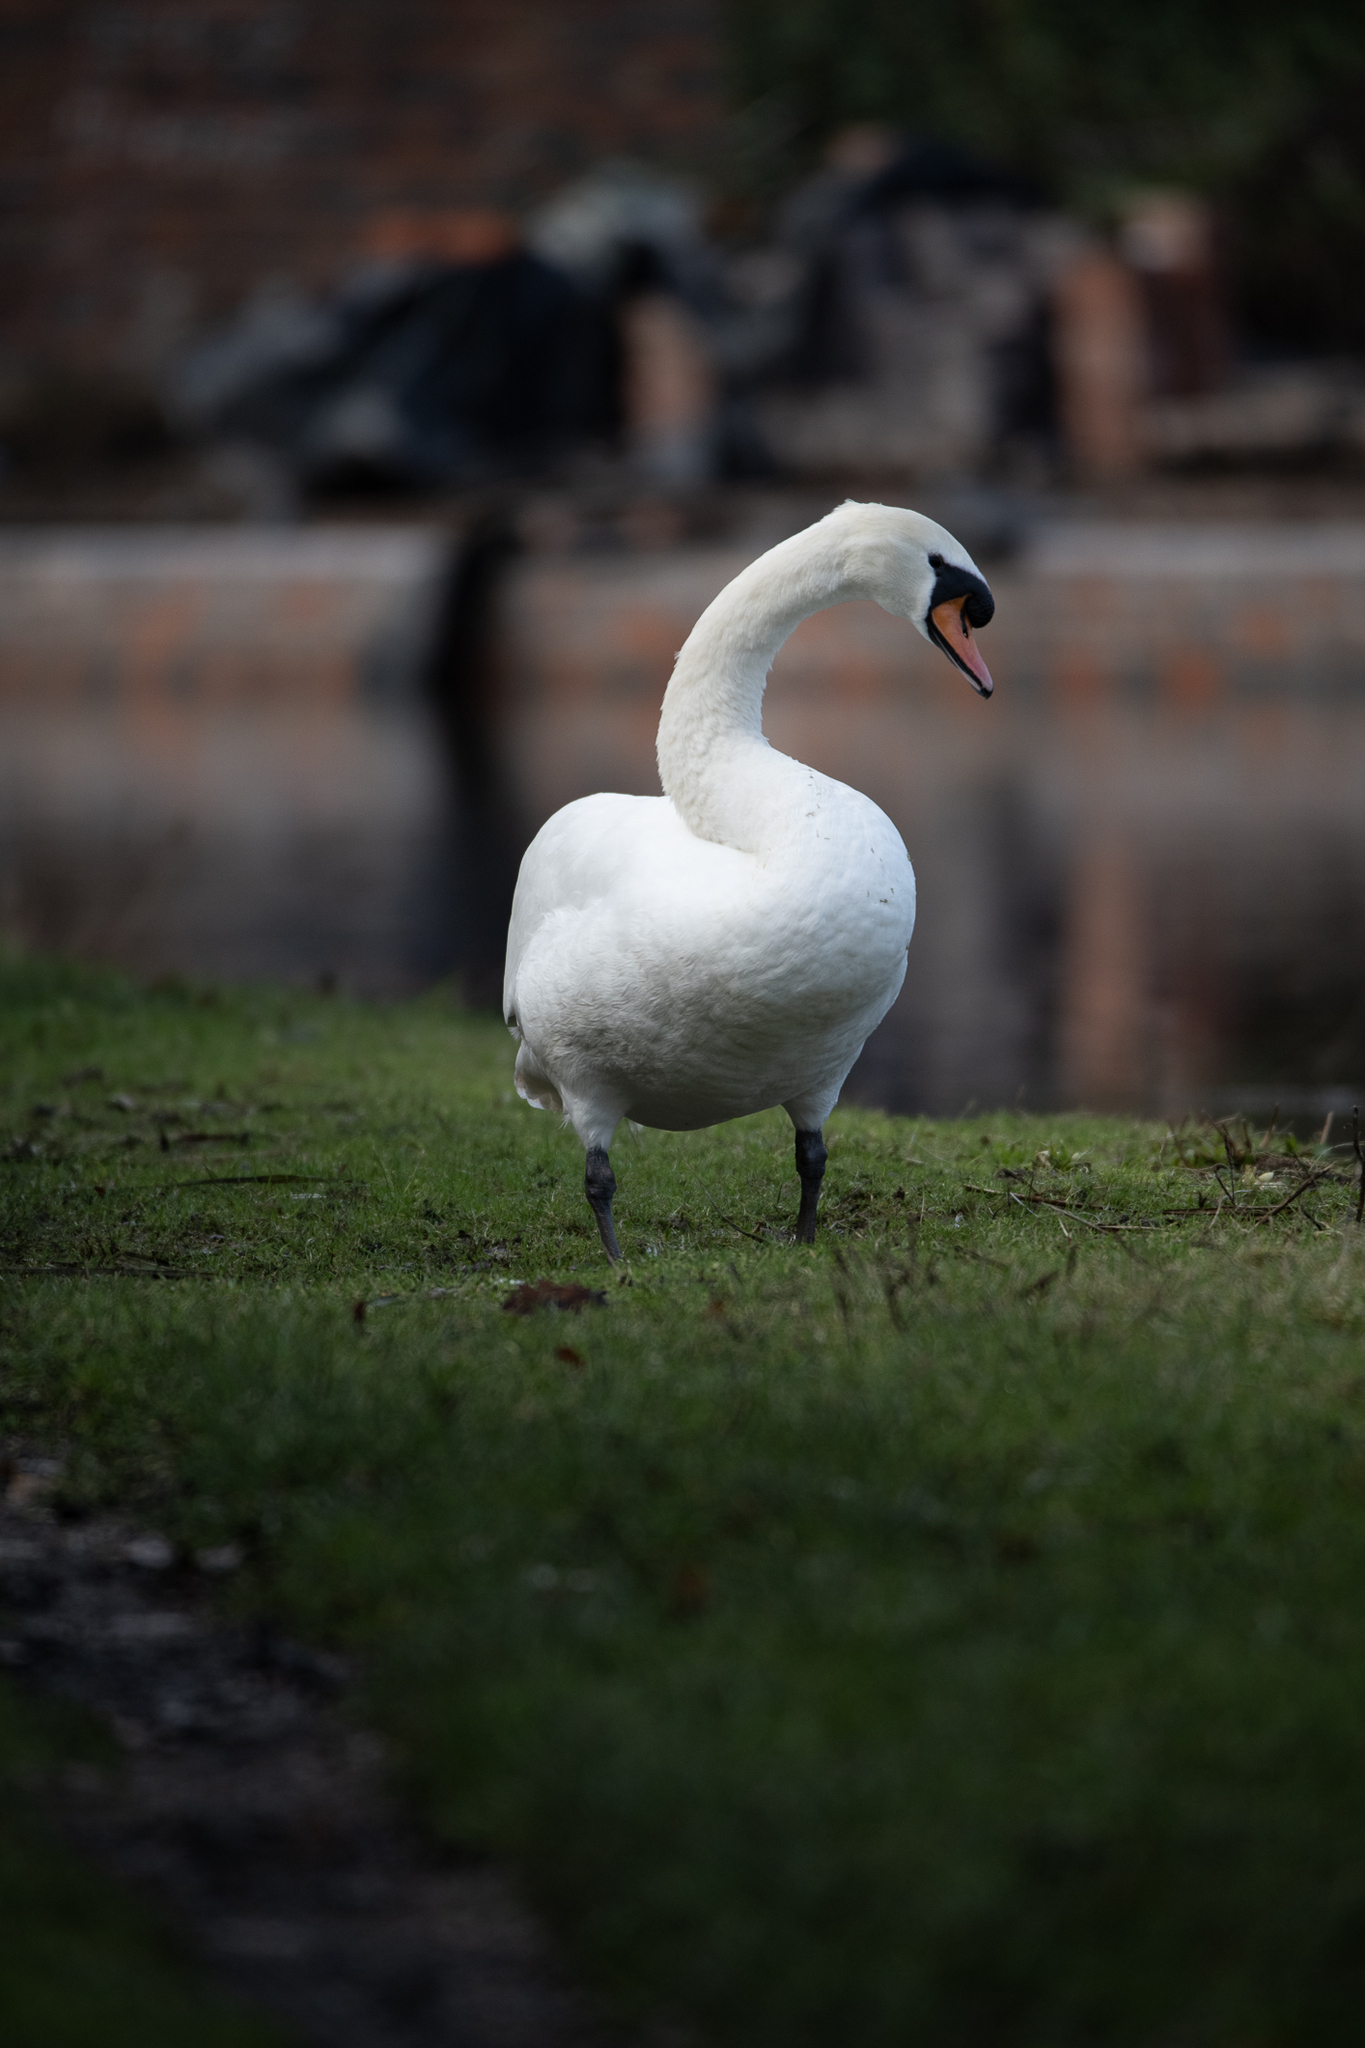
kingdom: Animalia
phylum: Chordata
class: Aves
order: Anseriformes
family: Anatidae
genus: Cygnus
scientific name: Cygnus olor
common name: Mute swan
